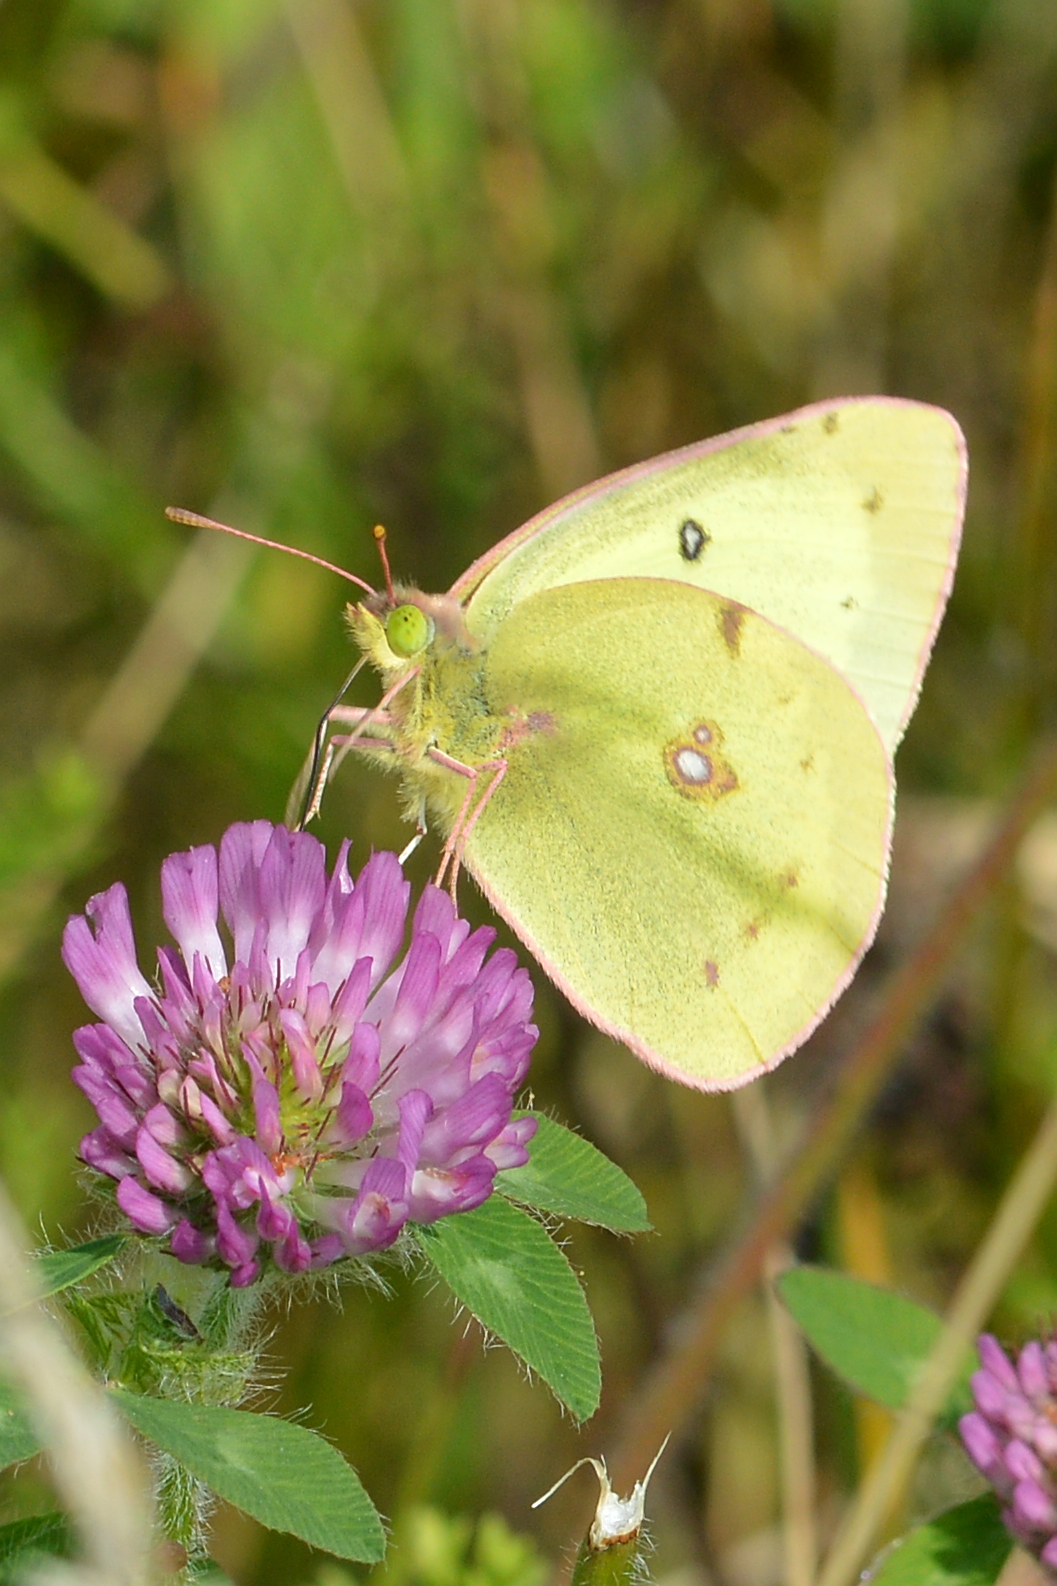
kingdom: Animalia
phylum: Arthropoda
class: Insecta
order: Lepidoptera
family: Pieridae
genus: Colias
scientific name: Colias philodice
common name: Clouded sulphur
